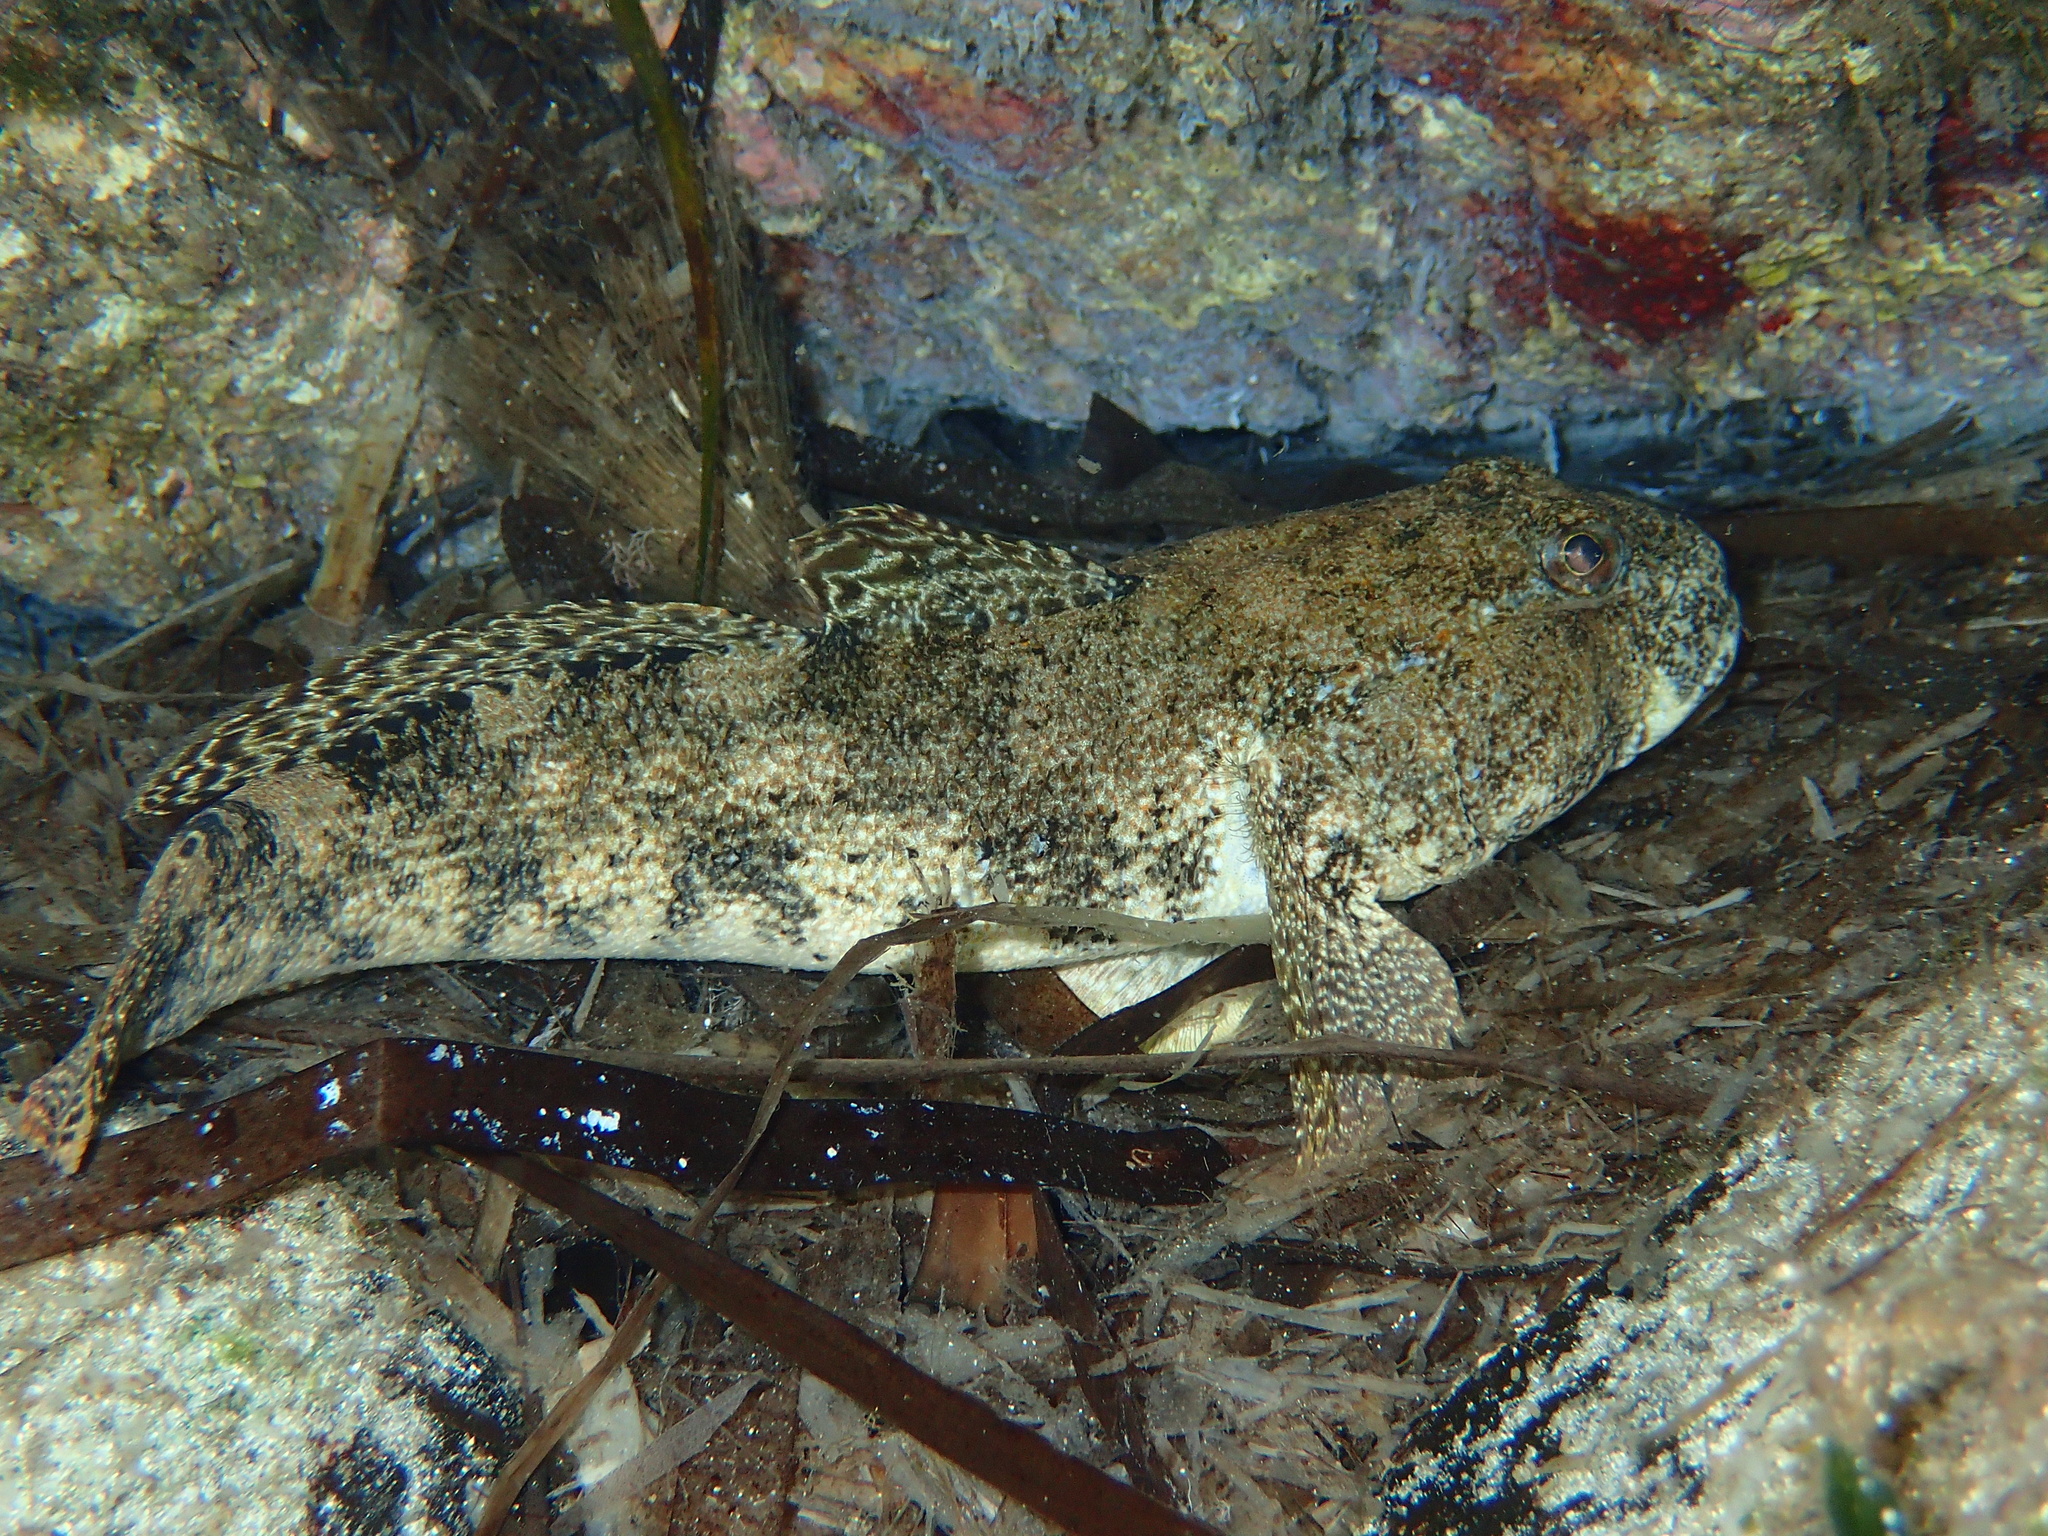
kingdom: Animalia
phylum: Chordata
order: Perciformes
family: Gobiidae
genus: Gobius
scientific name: Gobius cobitis
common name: Giant goby
